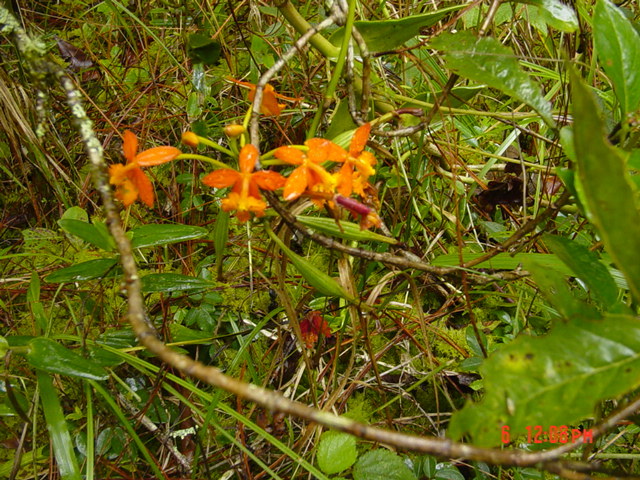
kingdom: Plantae
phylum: Tracheophyta
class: Liliopsida
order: Asparagales
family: Orchidaceae
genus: Epidendrum
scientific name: Epidendrum radicans
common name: Fire star orchid
